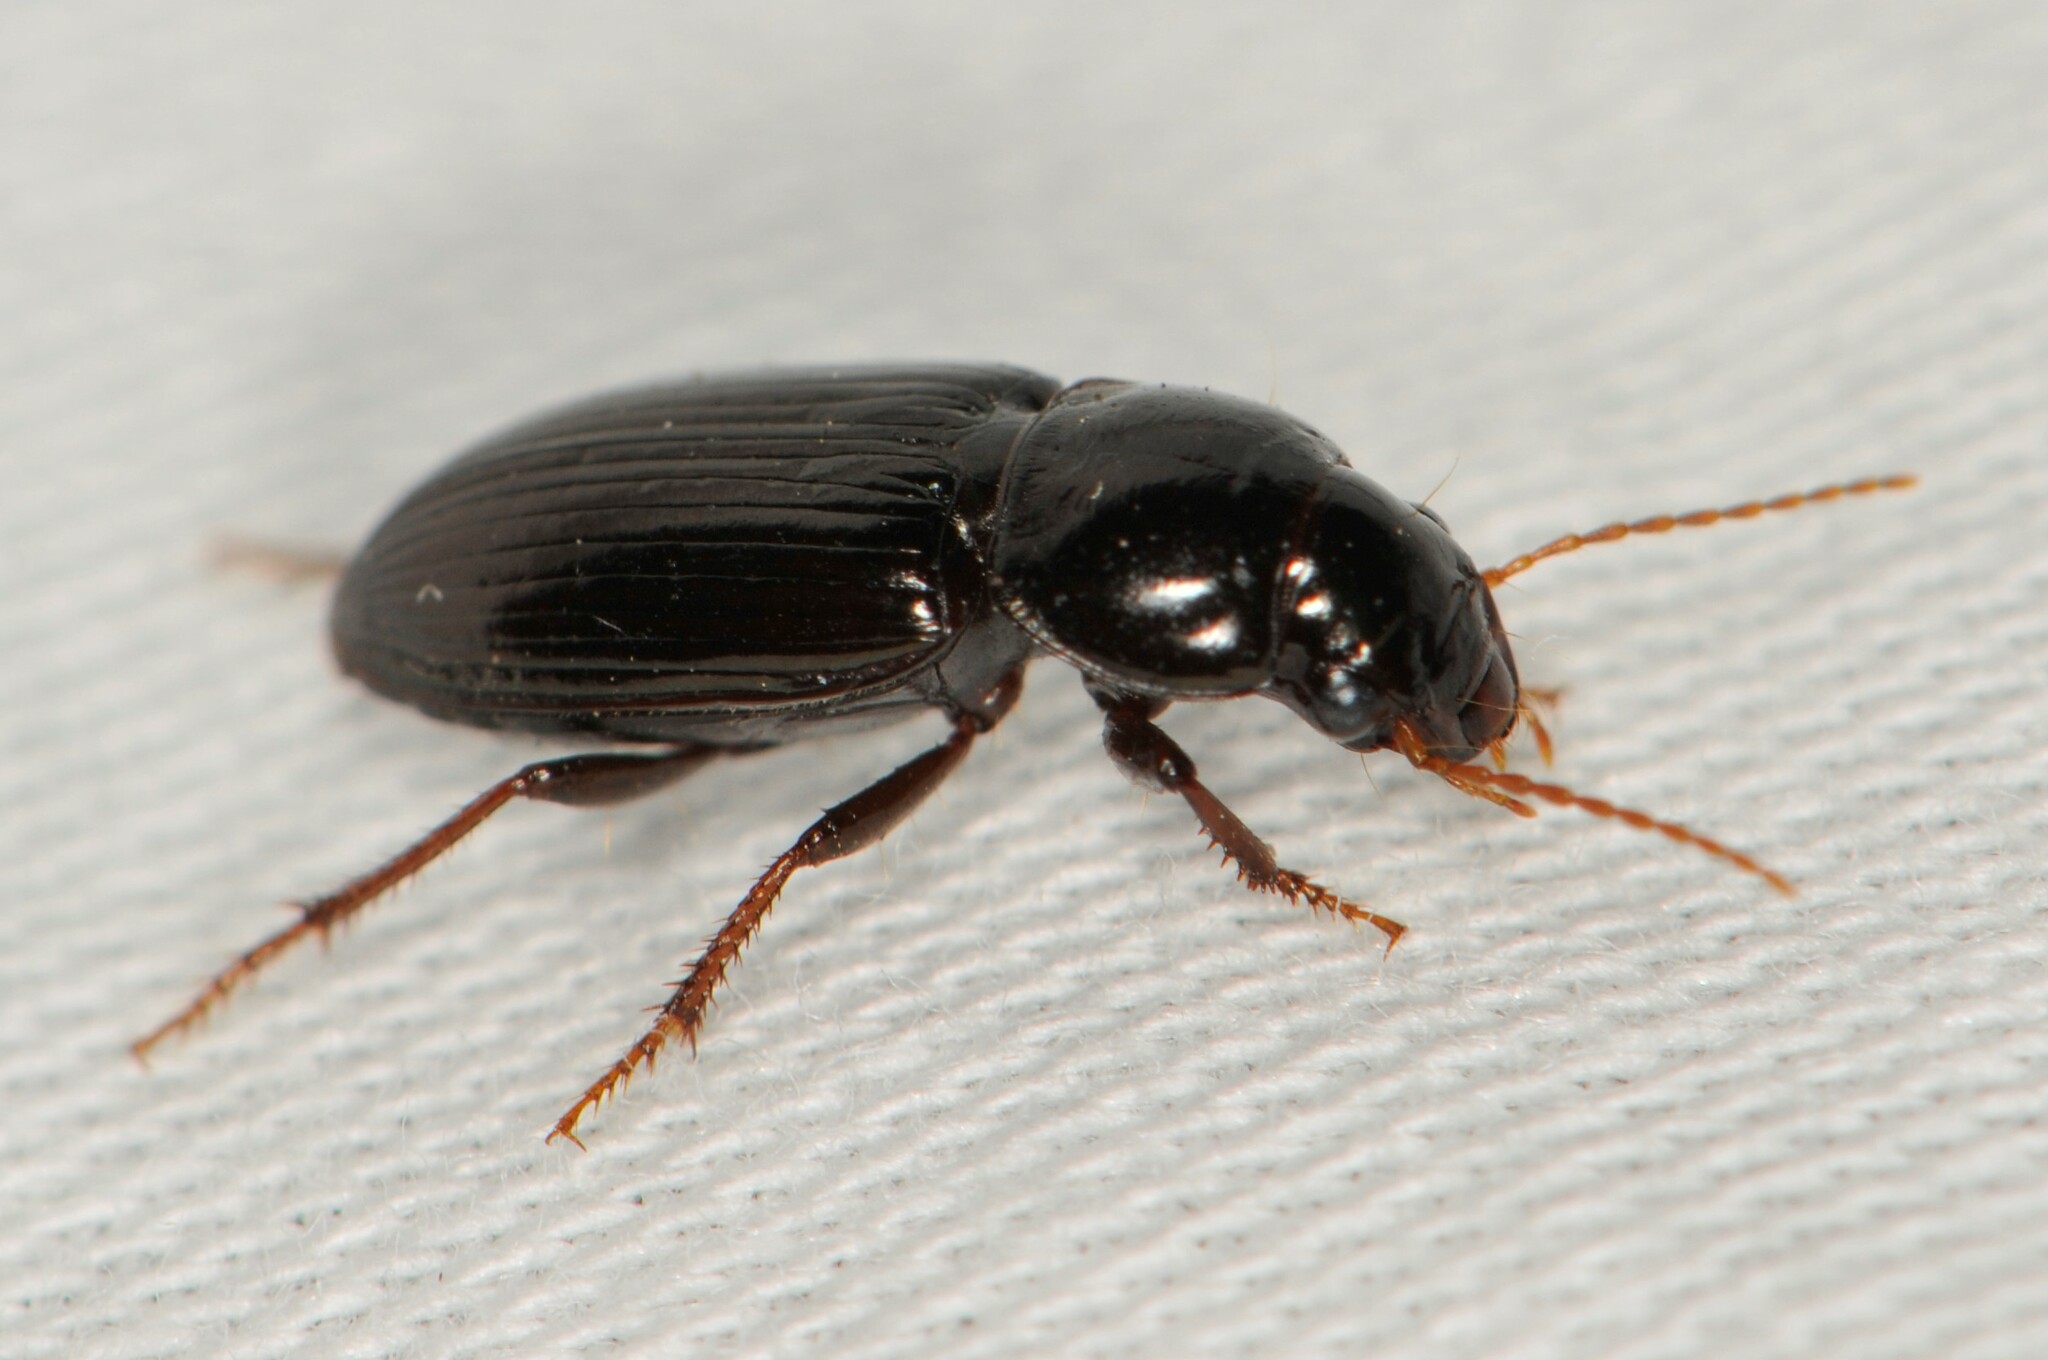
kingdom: Animalia
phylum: Arthropoda
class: Insecta
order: Coleoptera
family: Carabidae
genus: Discoderus
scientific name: Discoderus
